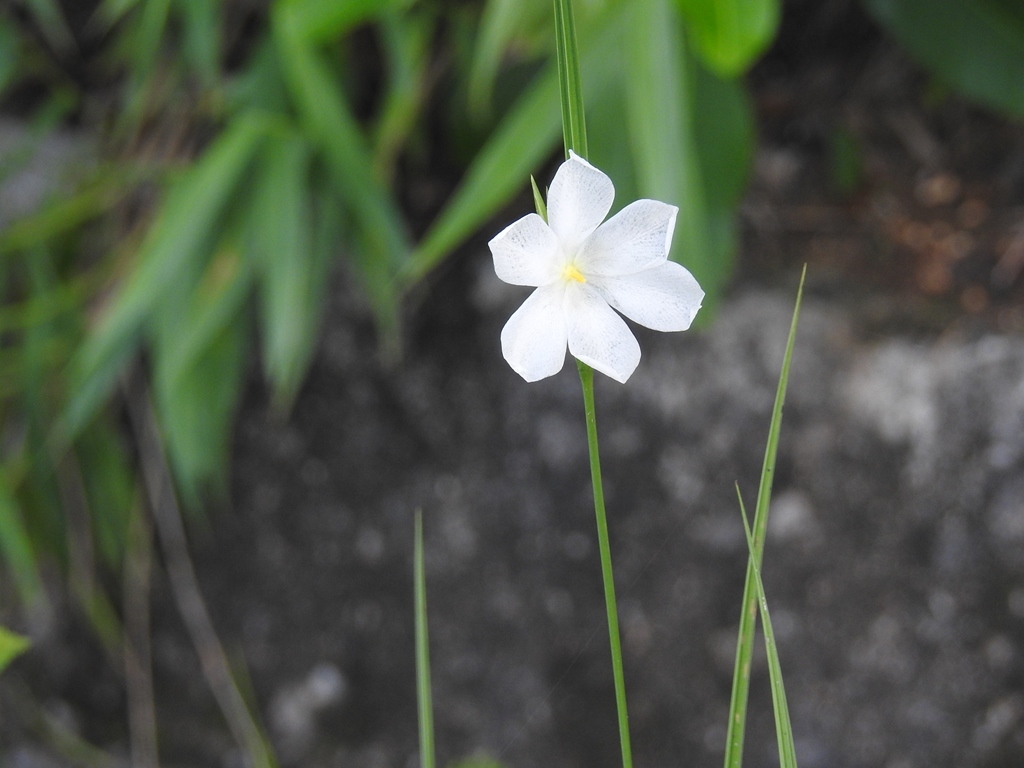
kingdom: Plantae
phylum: Tracheophyta
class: Liliopsida
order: Asparagales
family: Iridaceae
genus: Cipura
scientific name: Cipura campanulata
